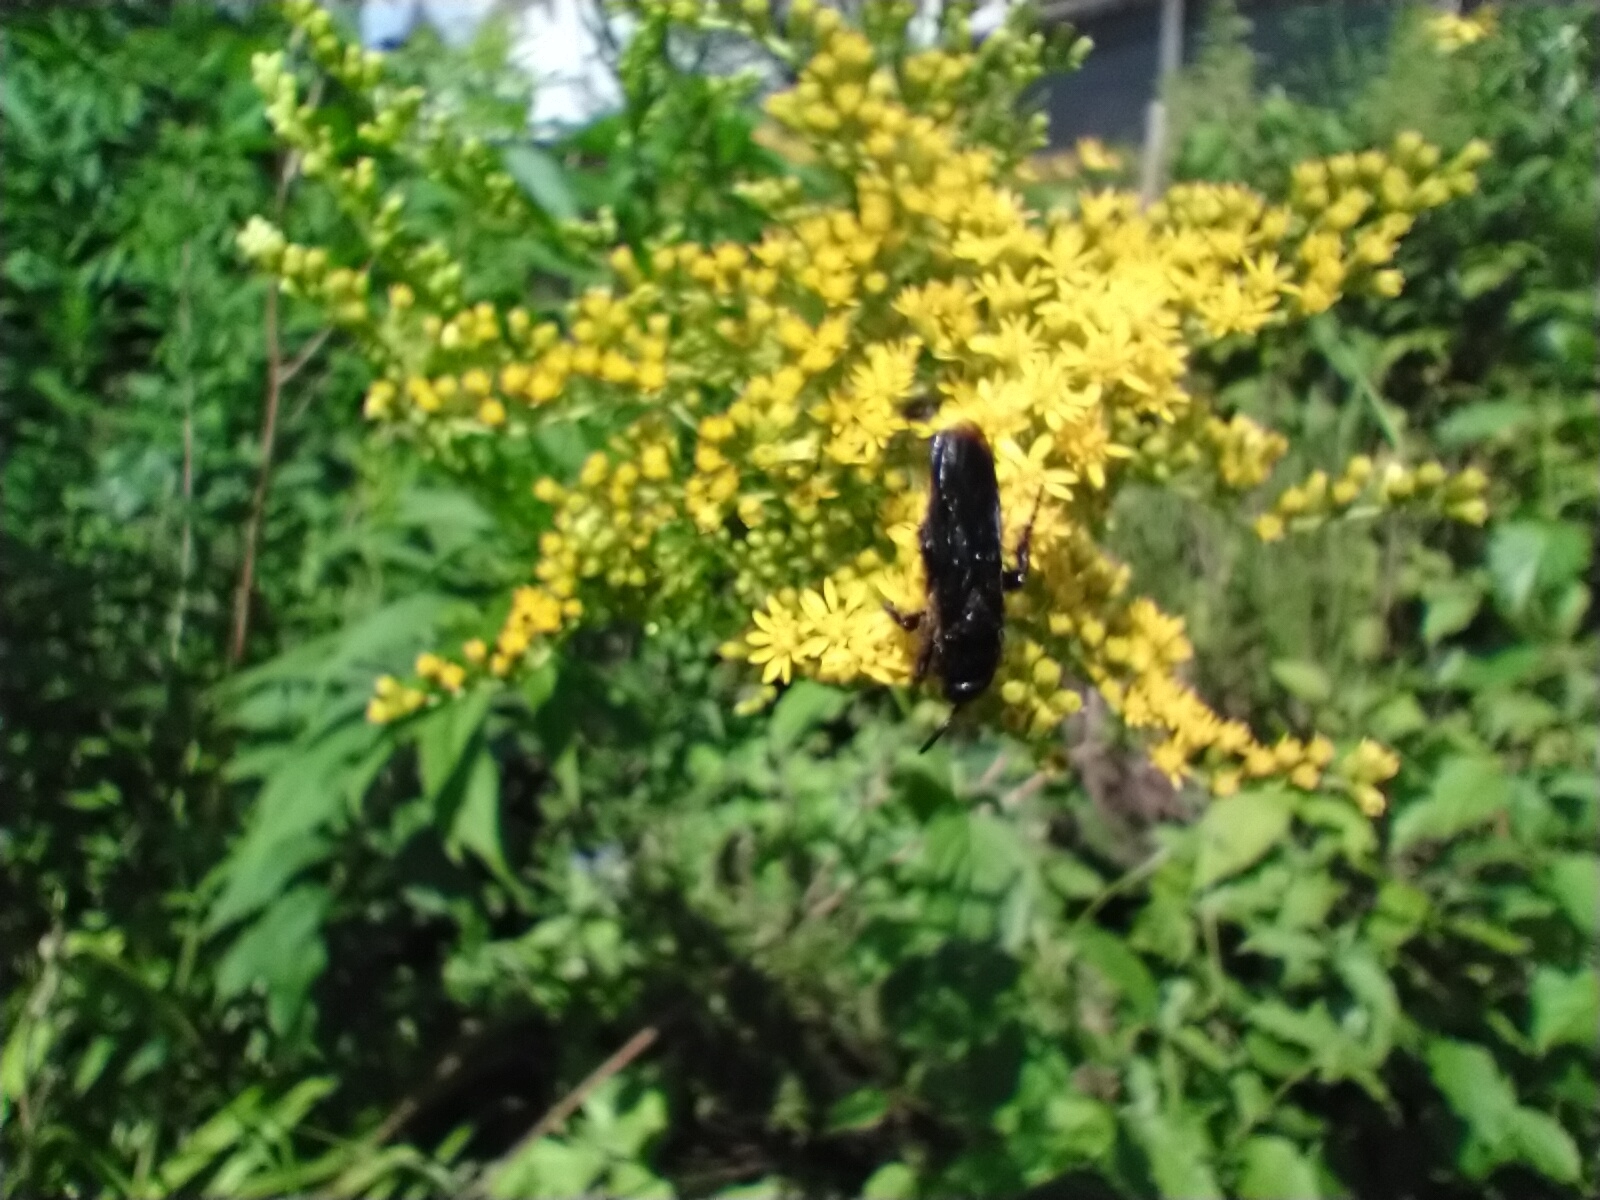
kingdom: Animalia
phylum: Arthropoda
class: Insecta
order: Hymenoptera
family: Scoliidae
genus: Scolia
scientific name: Scolia hirta
